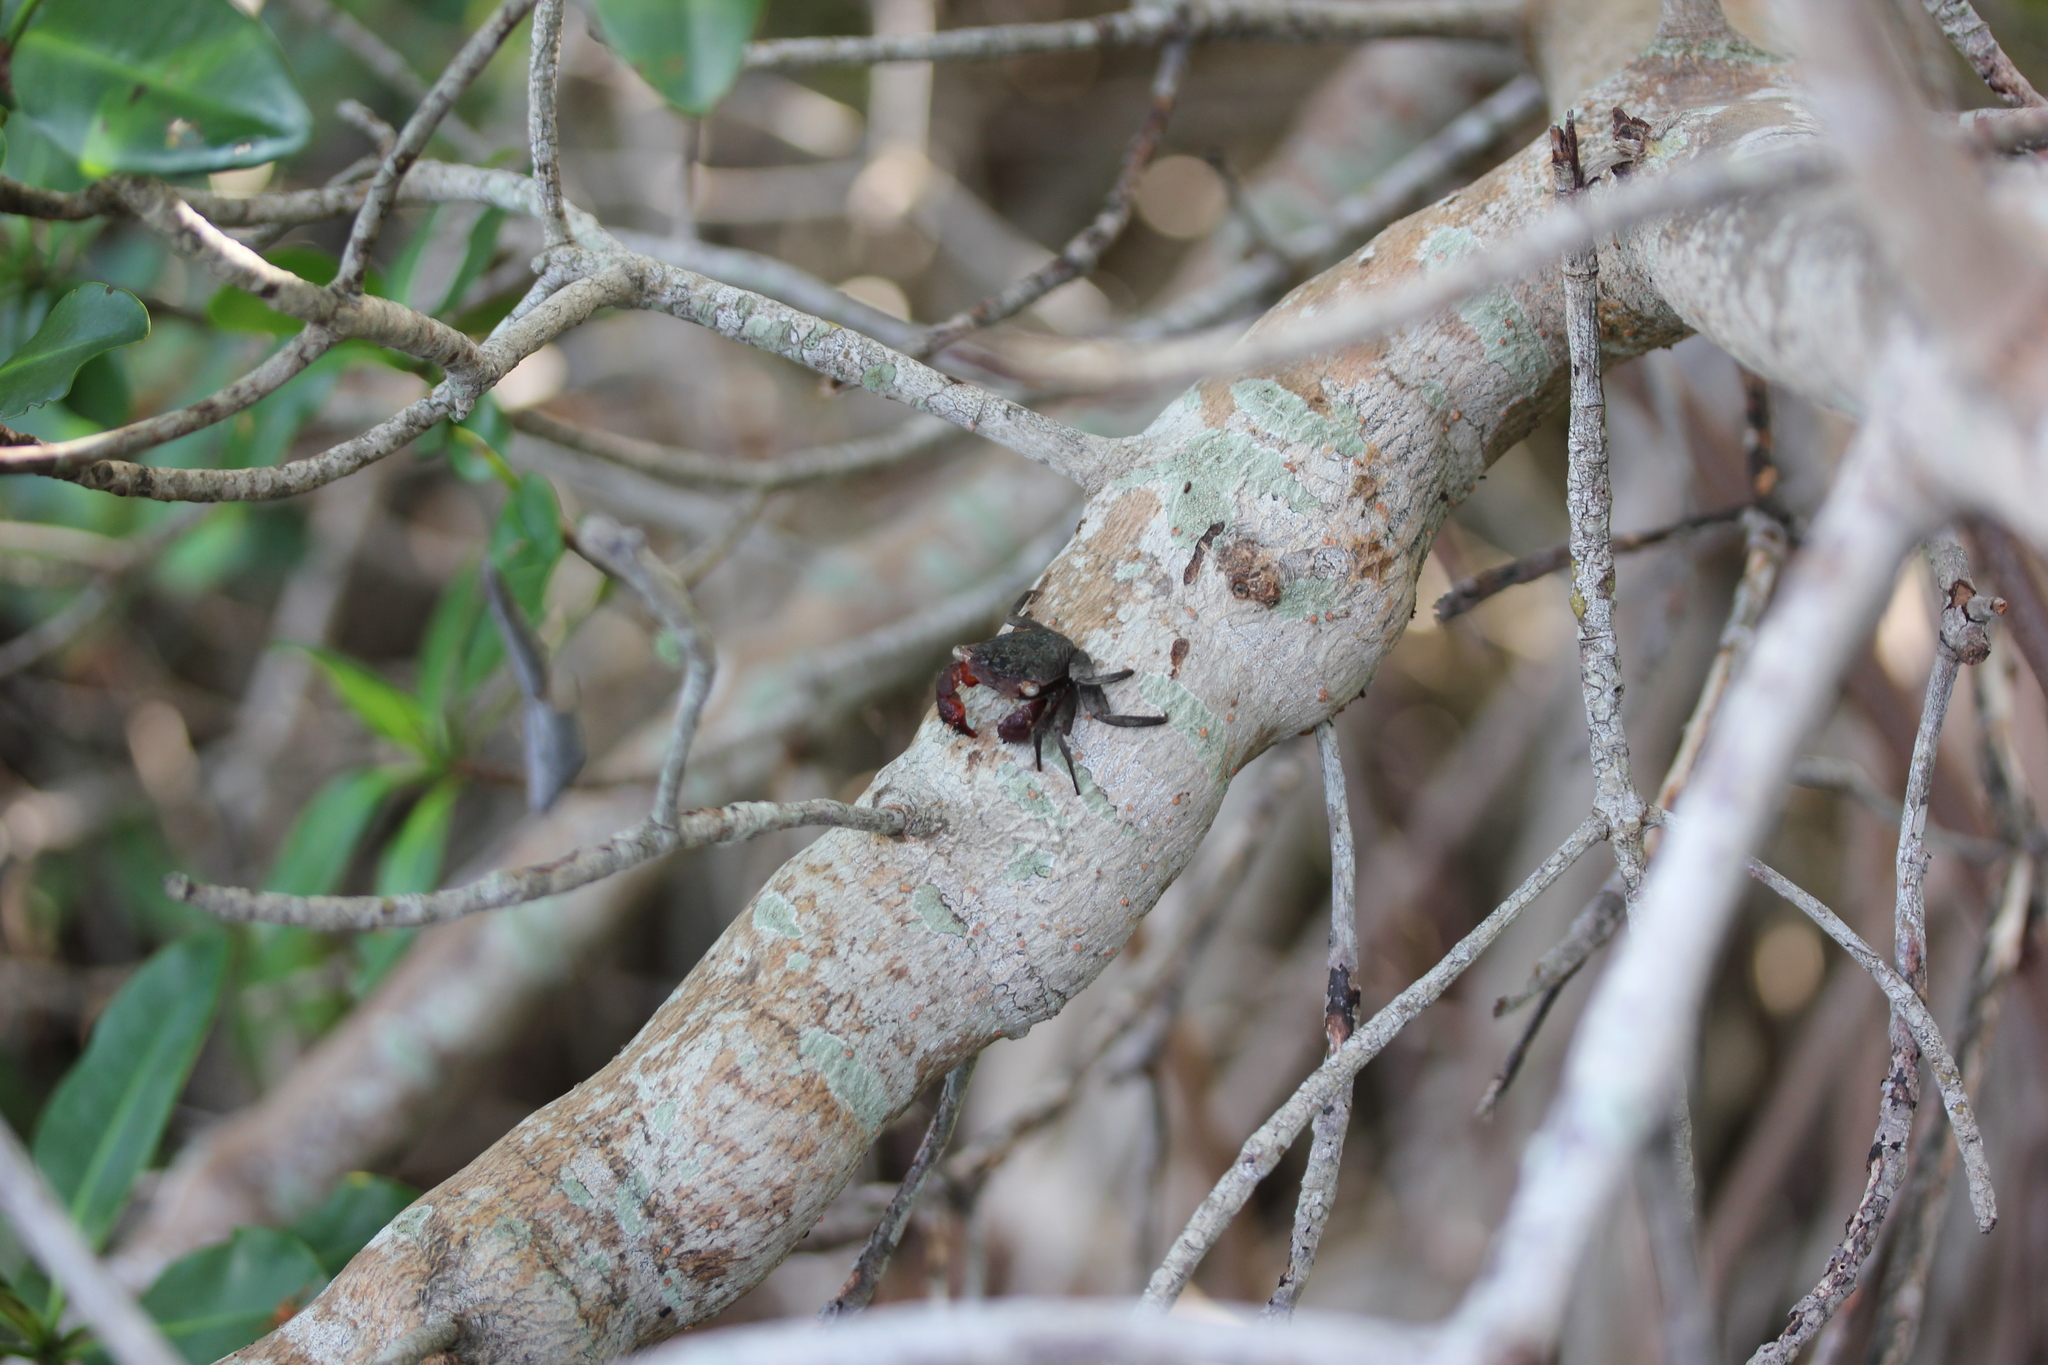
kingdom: Animalia
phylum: Arthropoda
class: Malacostraca
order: Decapoda
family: Sesarmidae
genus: Aratus
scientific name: Aratus pisonii
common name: Mangrove crab
